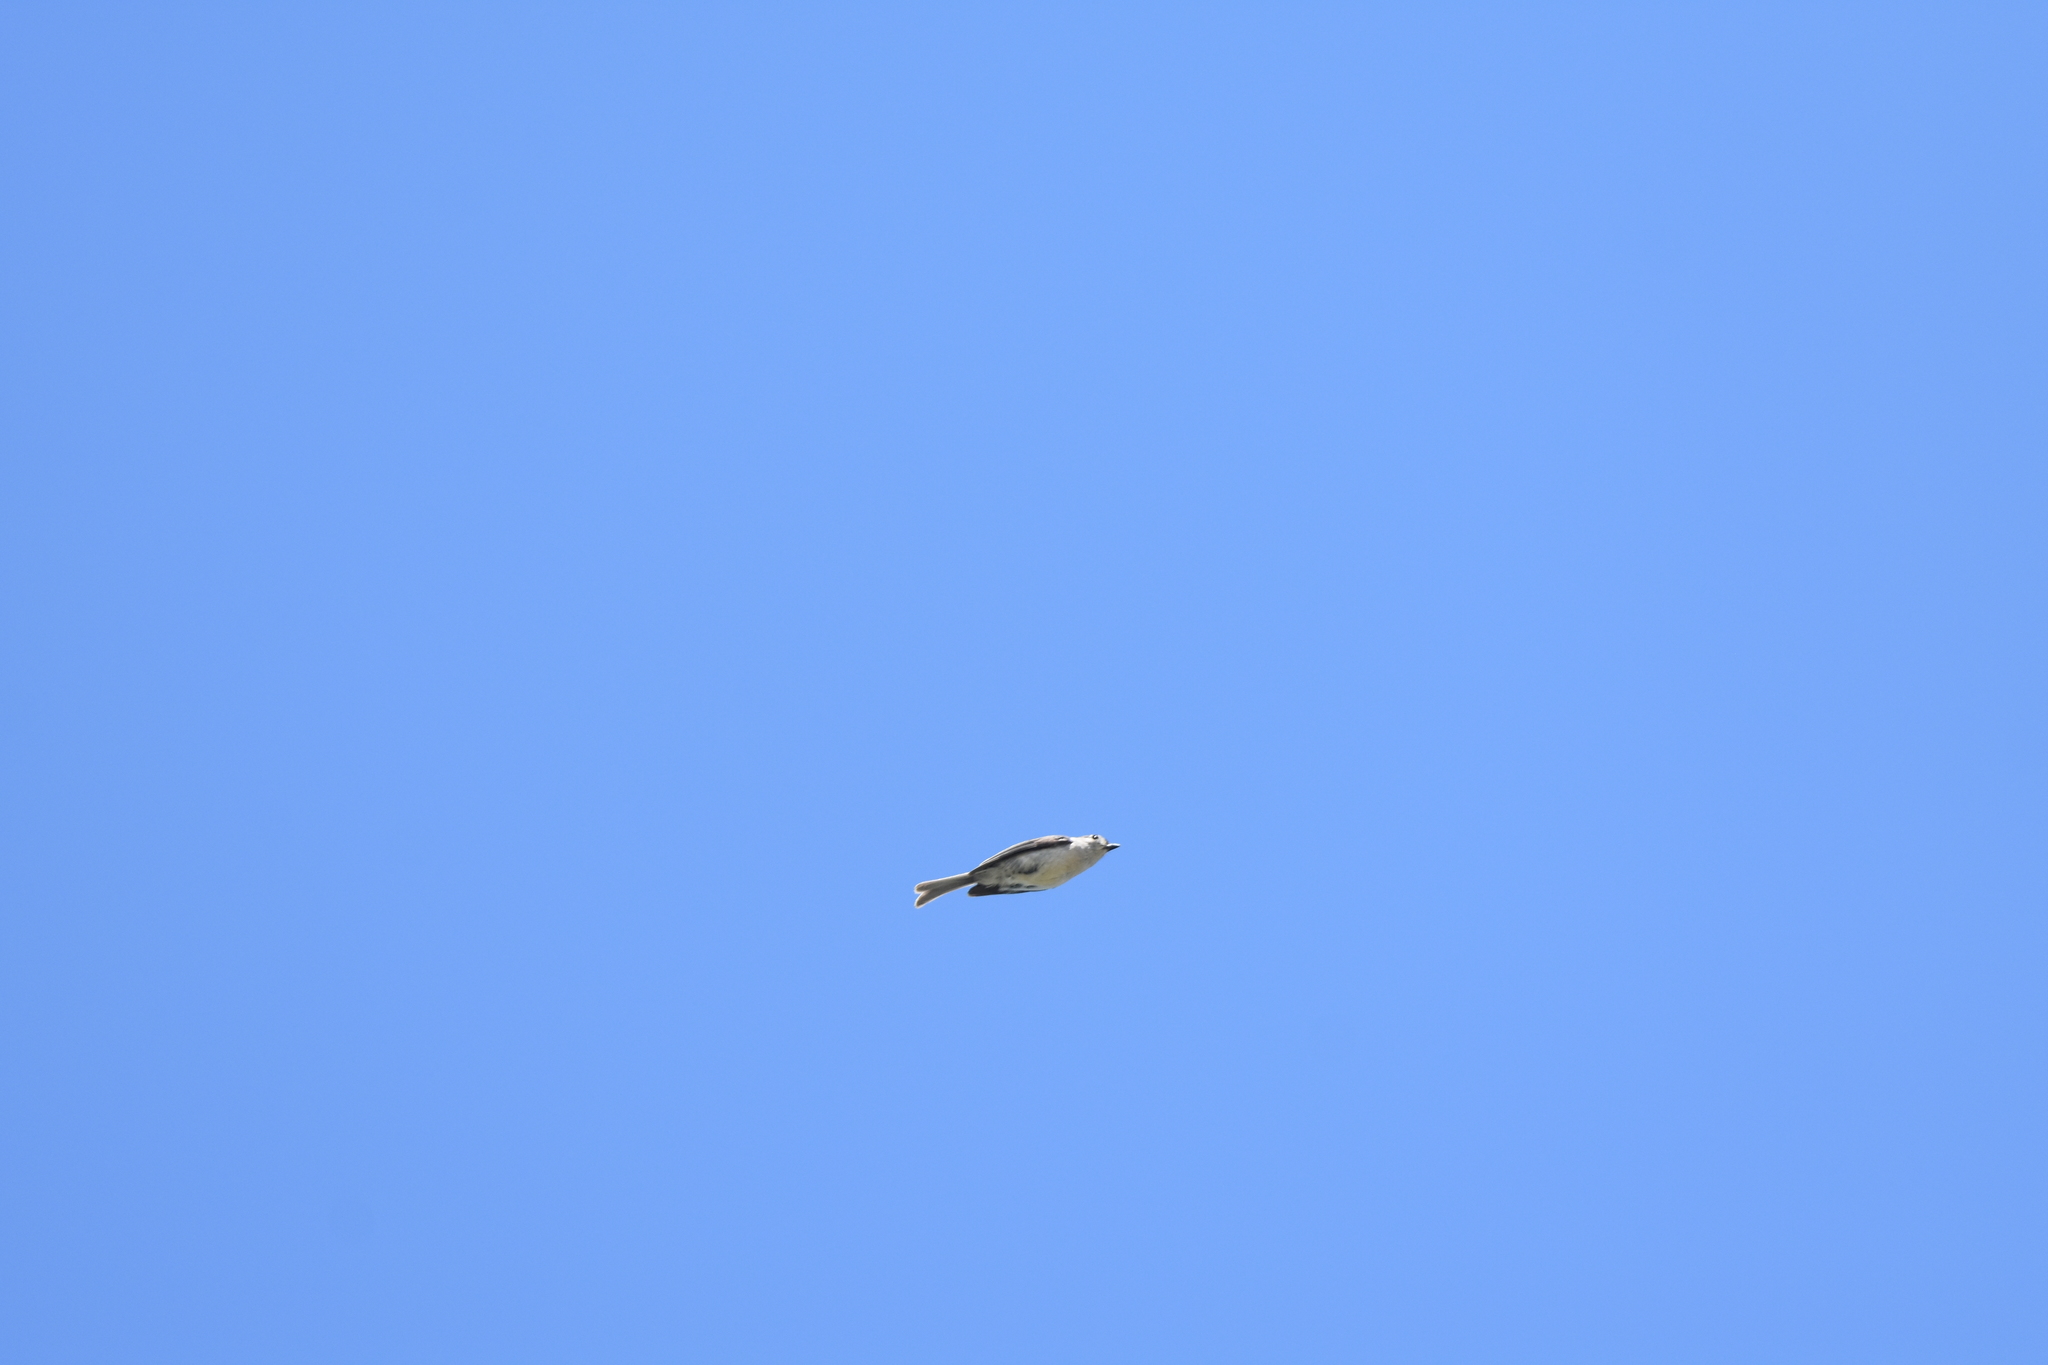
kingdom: Animalia
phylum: Chordata
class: Aves
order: Passeriformes
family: Paridae
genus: Baeolophus
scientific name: Baeolophus bicolor
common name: Tufted titmouse
